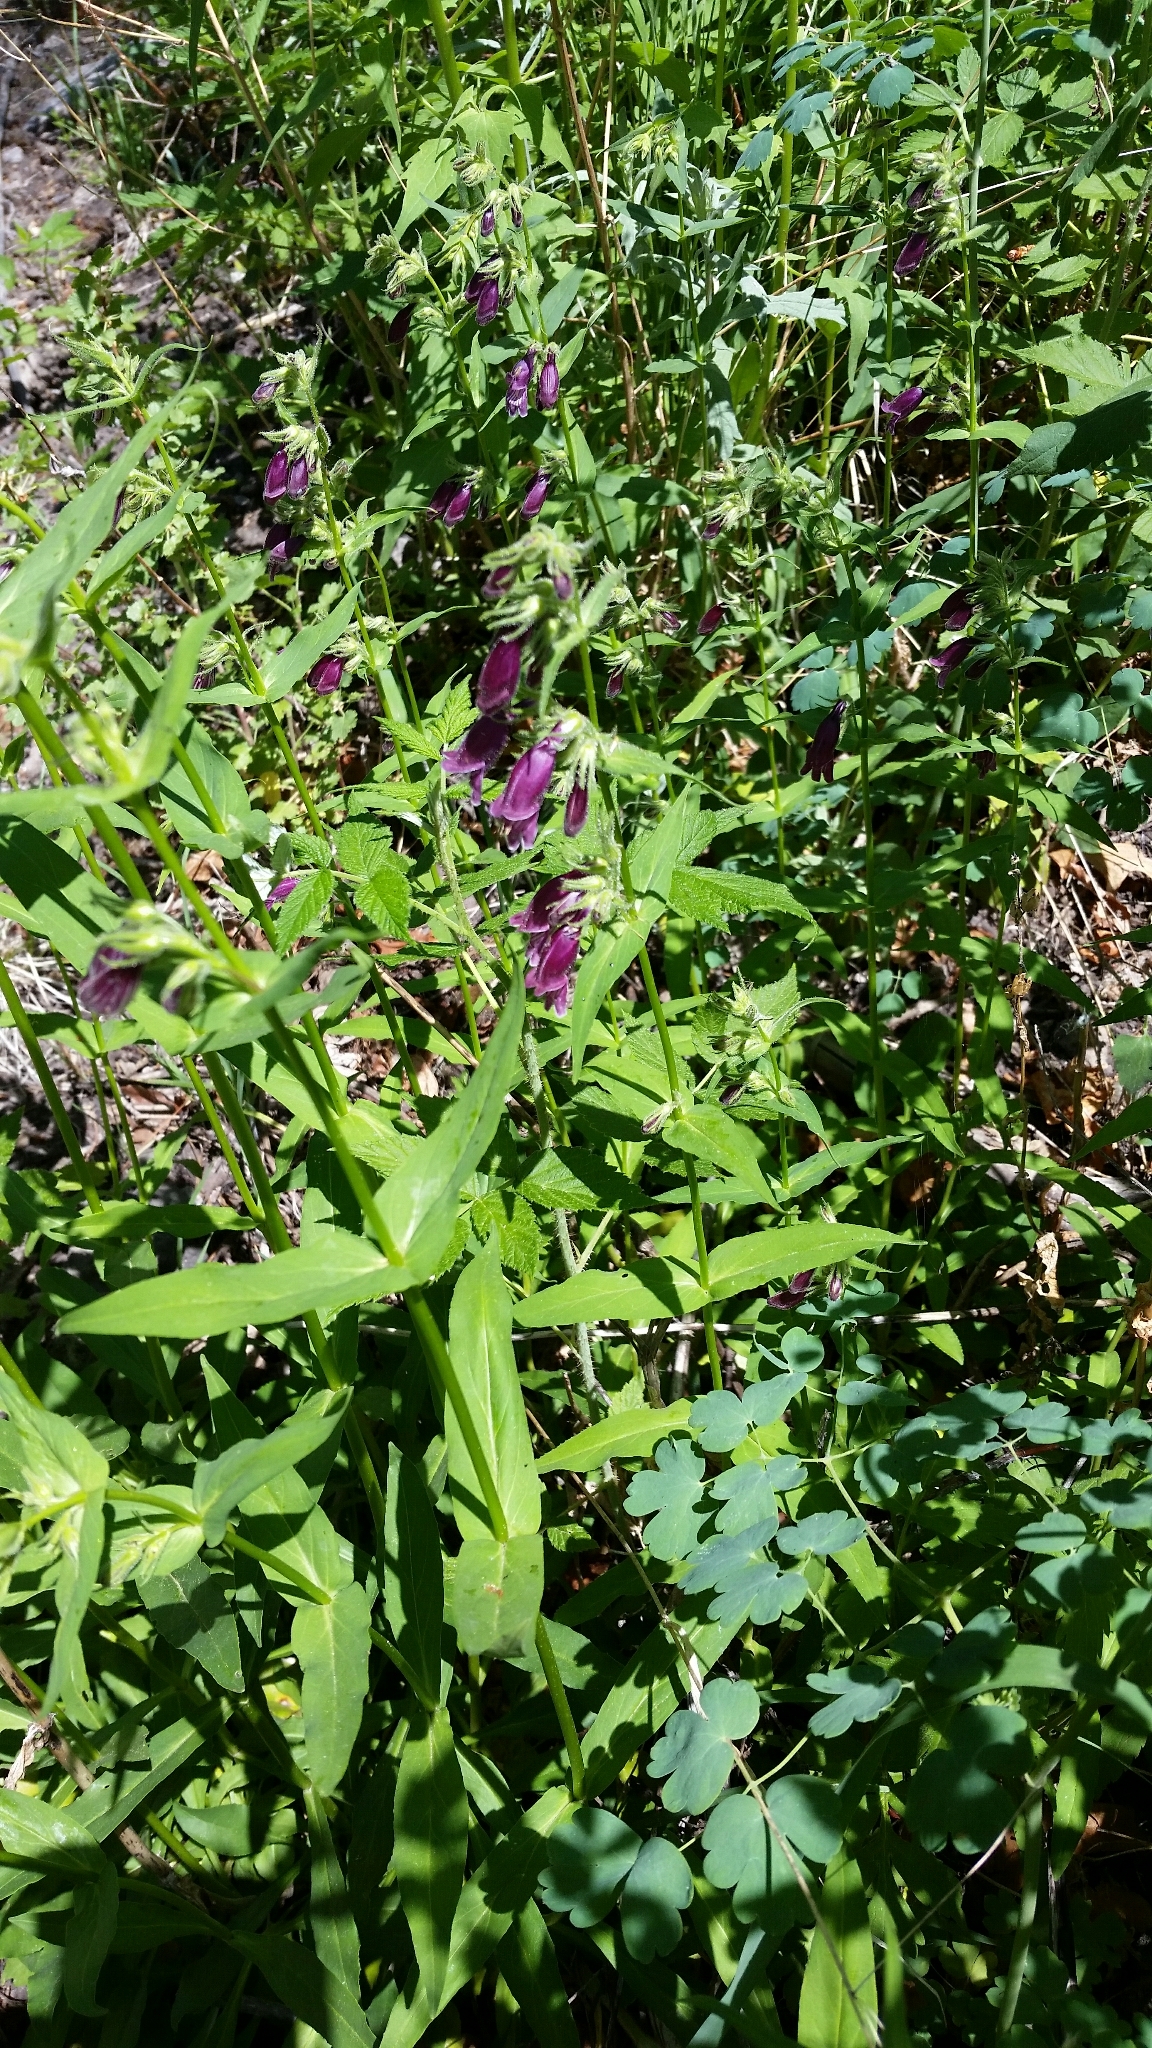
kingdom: Plantae
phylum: Tracheophyta
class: Magnoliopsida
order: Lamiales
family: Plantaginaceae
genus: Penstemon
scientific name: Penstemon whippleanus
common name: Whipple's penstemon
